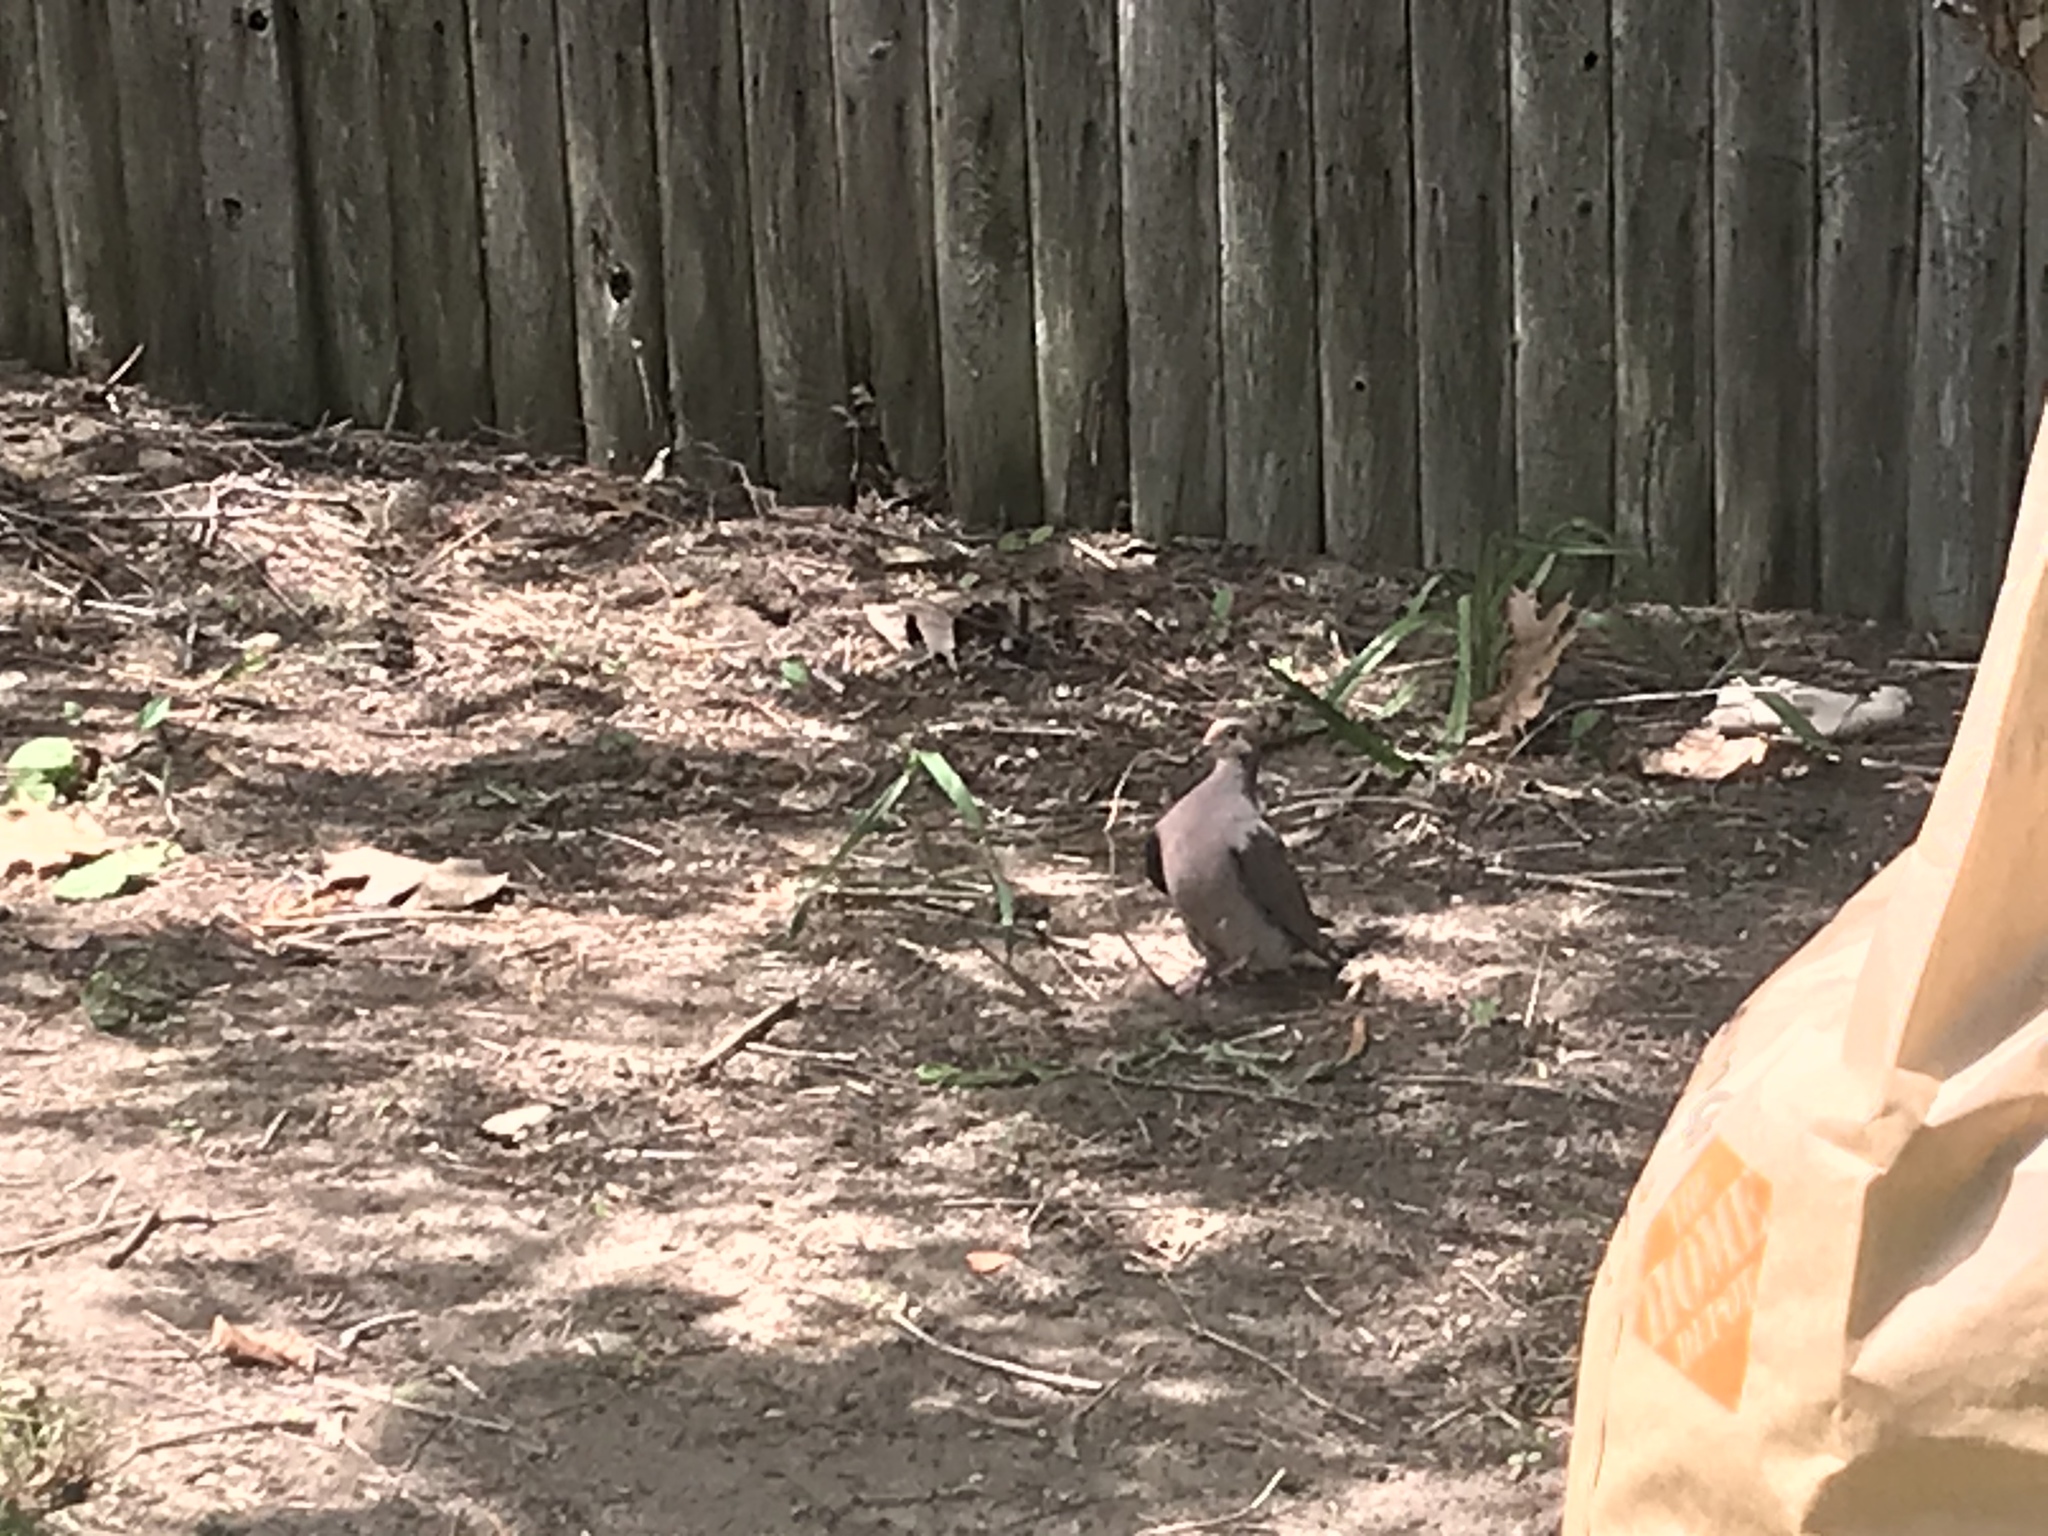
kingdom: Animalia
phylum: Chordata
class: Aves
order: Columbiformes
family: Columbidae
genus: Zenaida
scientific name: Zenaida macroura
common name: Mourning dove
